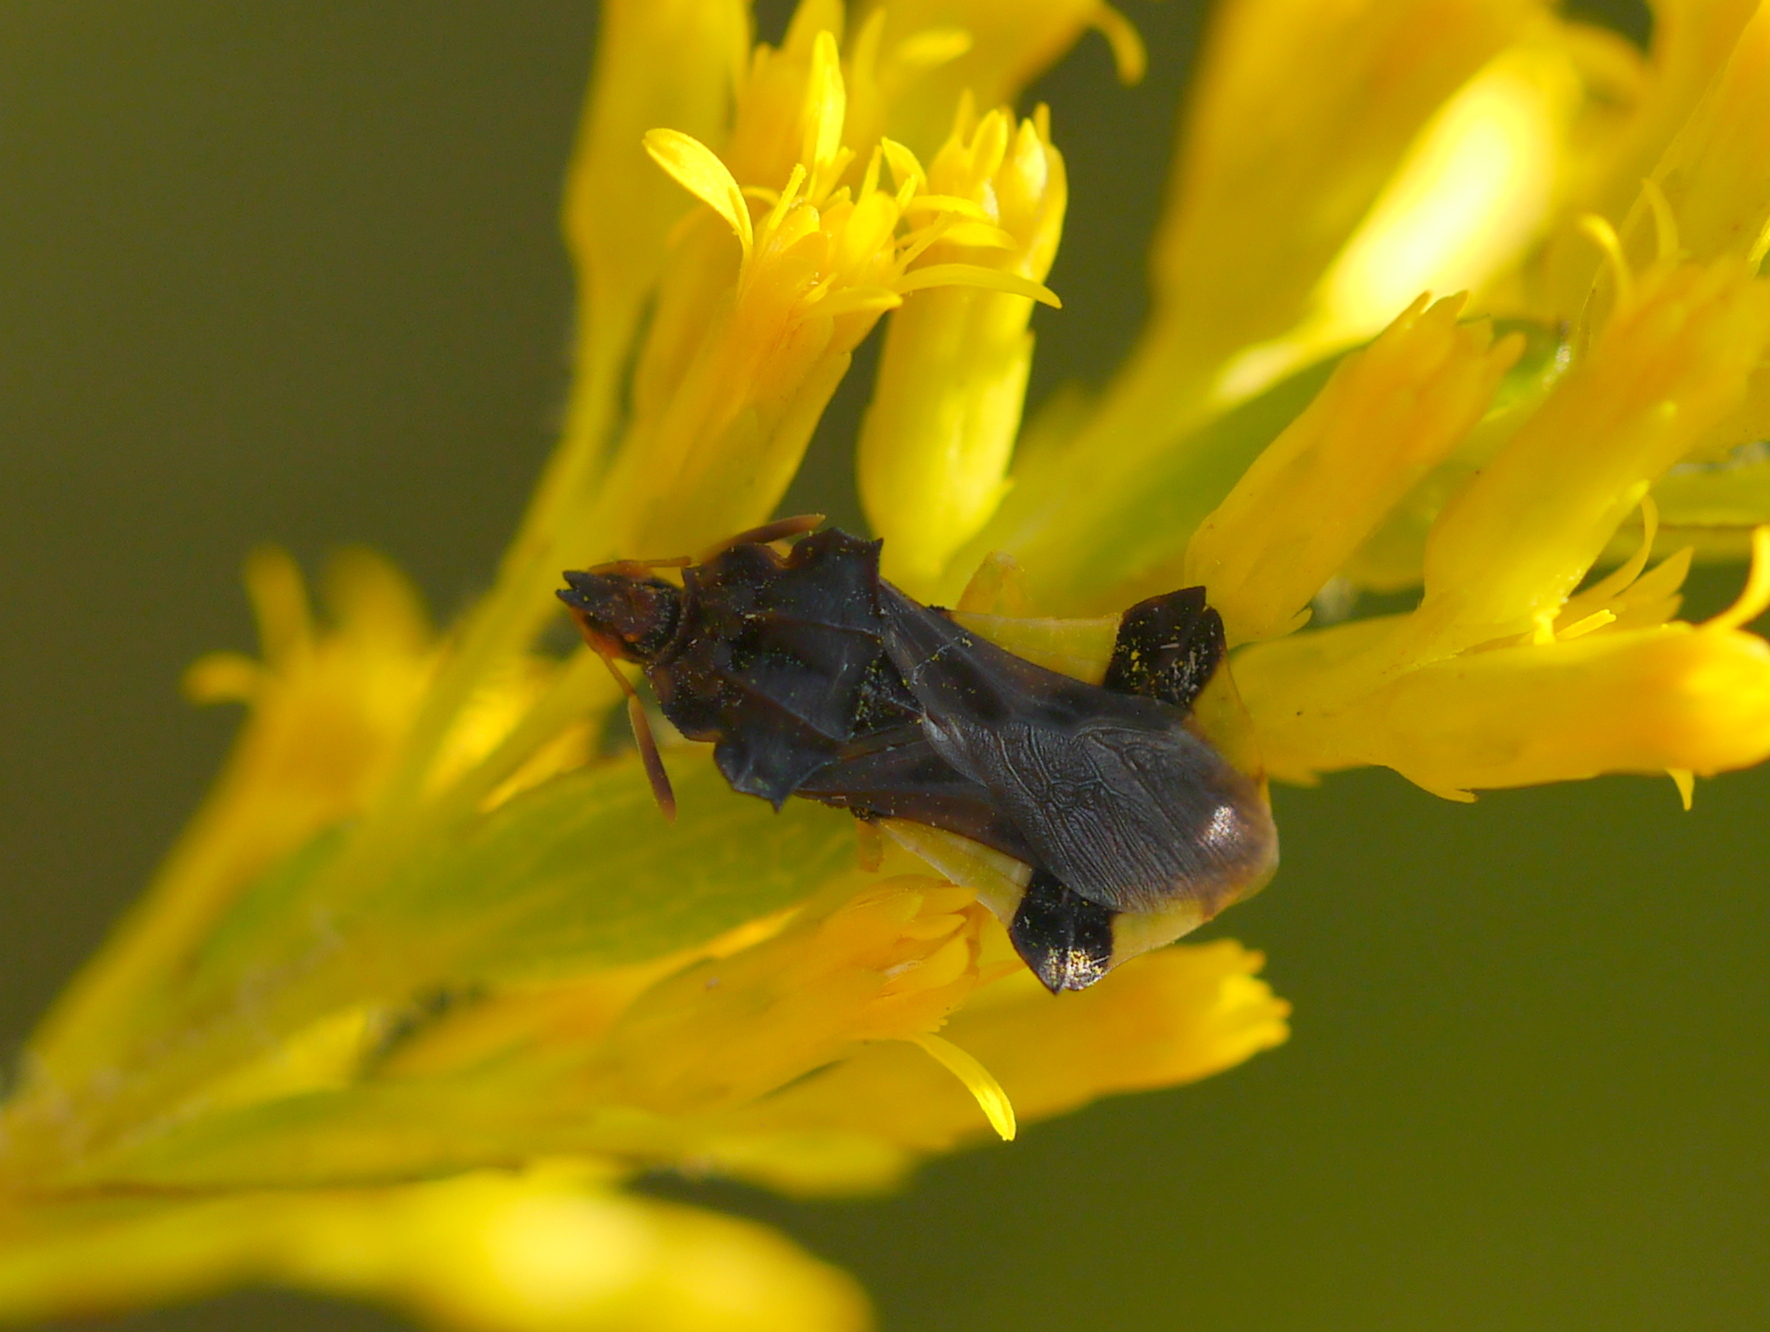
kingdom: Animalia
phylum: Arthropoda
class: Insecta
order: Hemiptera
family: Reduviidae
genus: Phymata
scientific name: Phymata pennsylvanica
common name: Pennsylvania ambush bug
